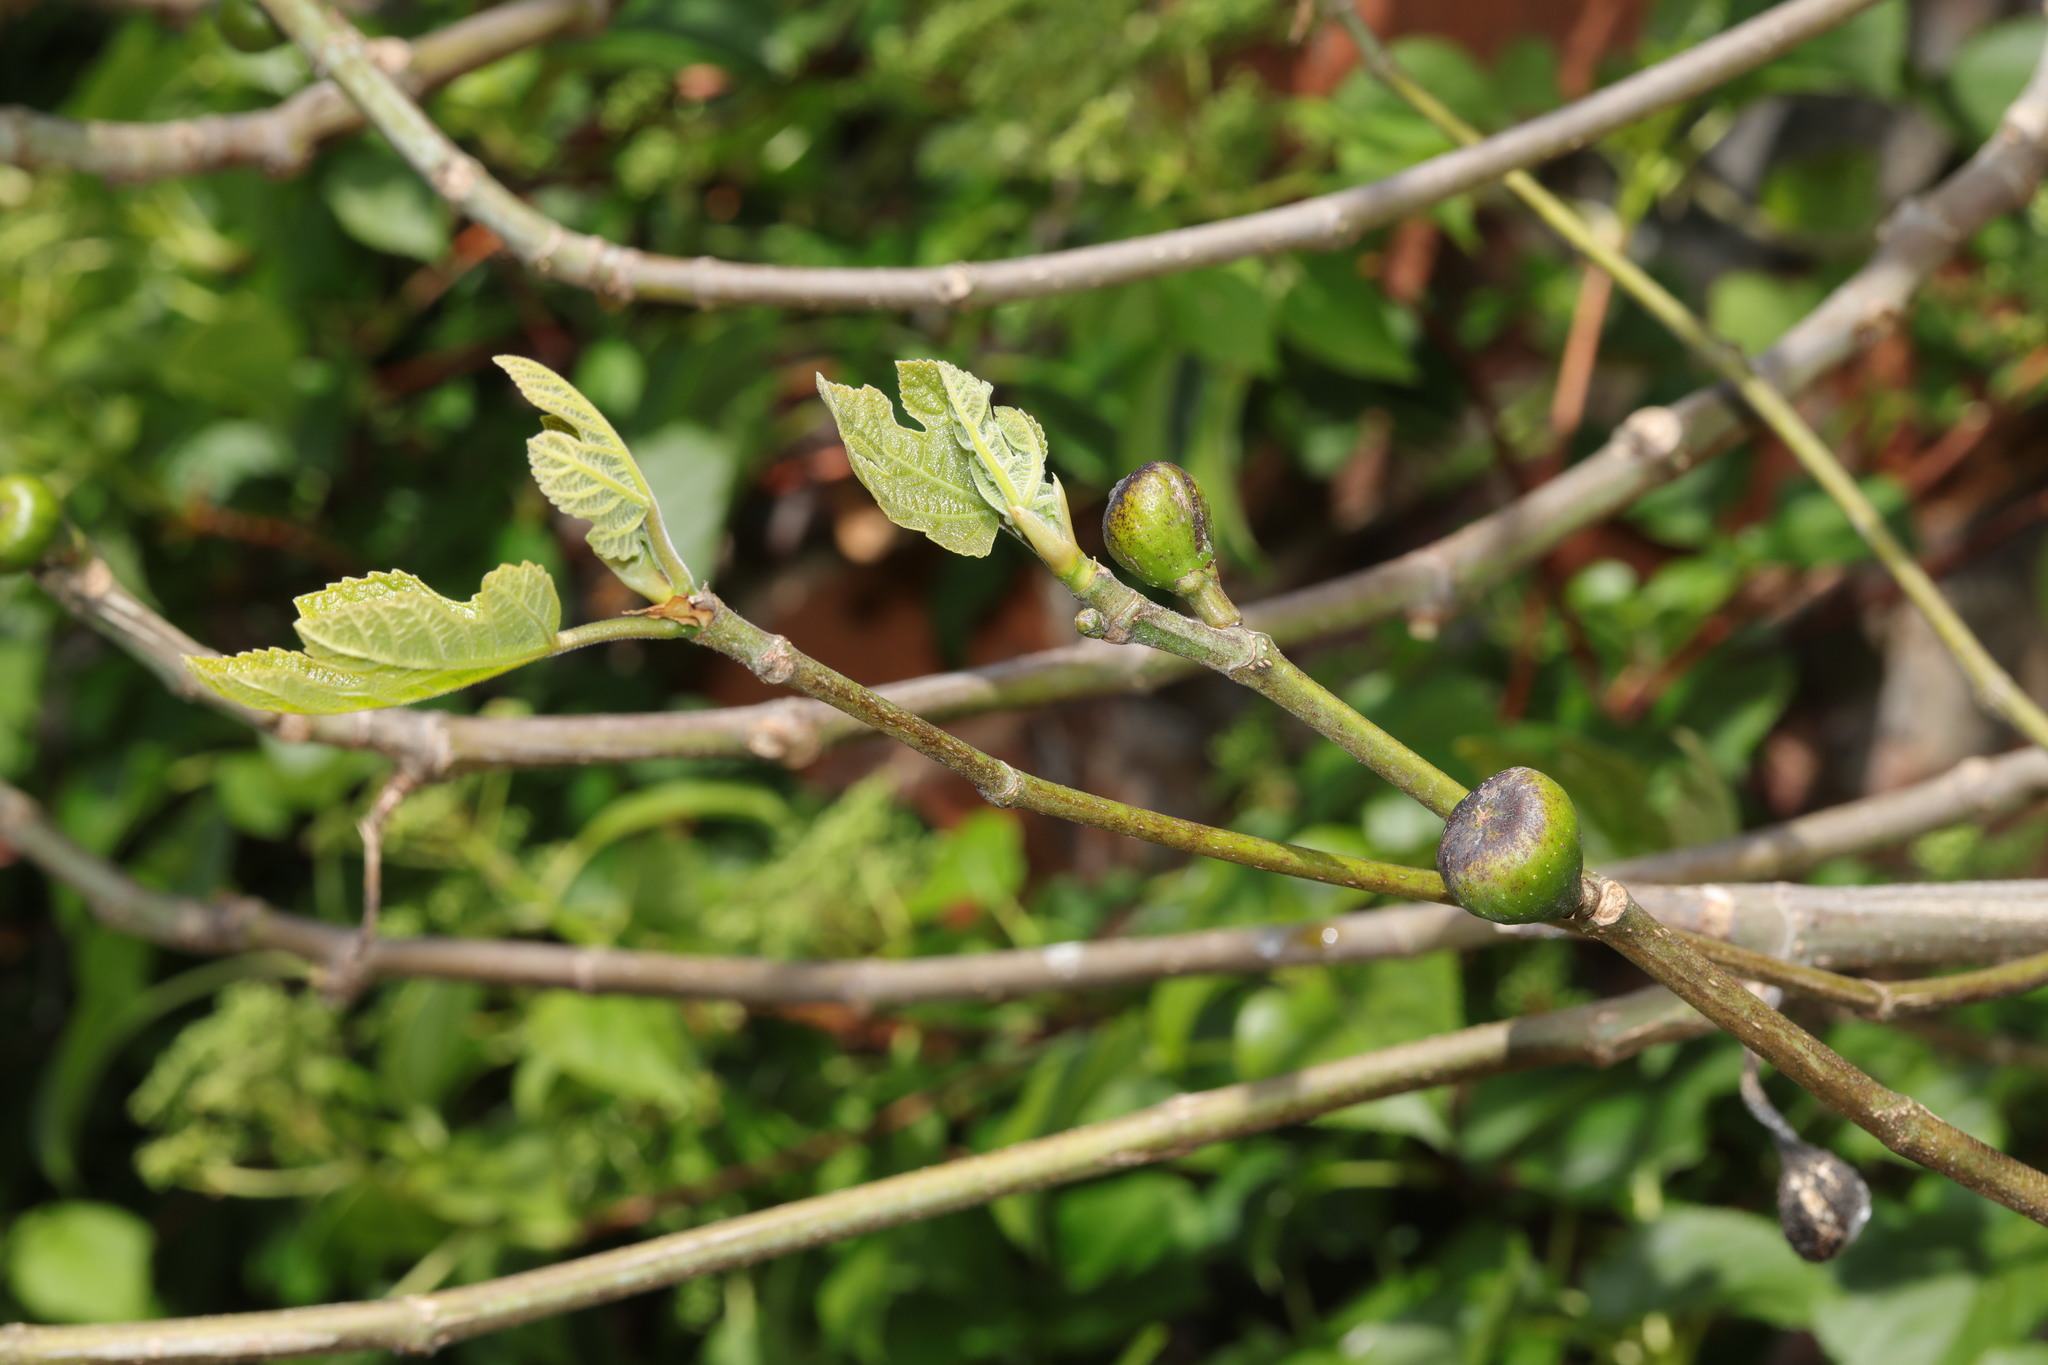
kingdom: Plantae
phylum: Tracheophyta
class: Magnoliopsida
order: Rosales
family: Moraceae
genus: Ficus
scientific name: Ficus carica
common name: Fig
